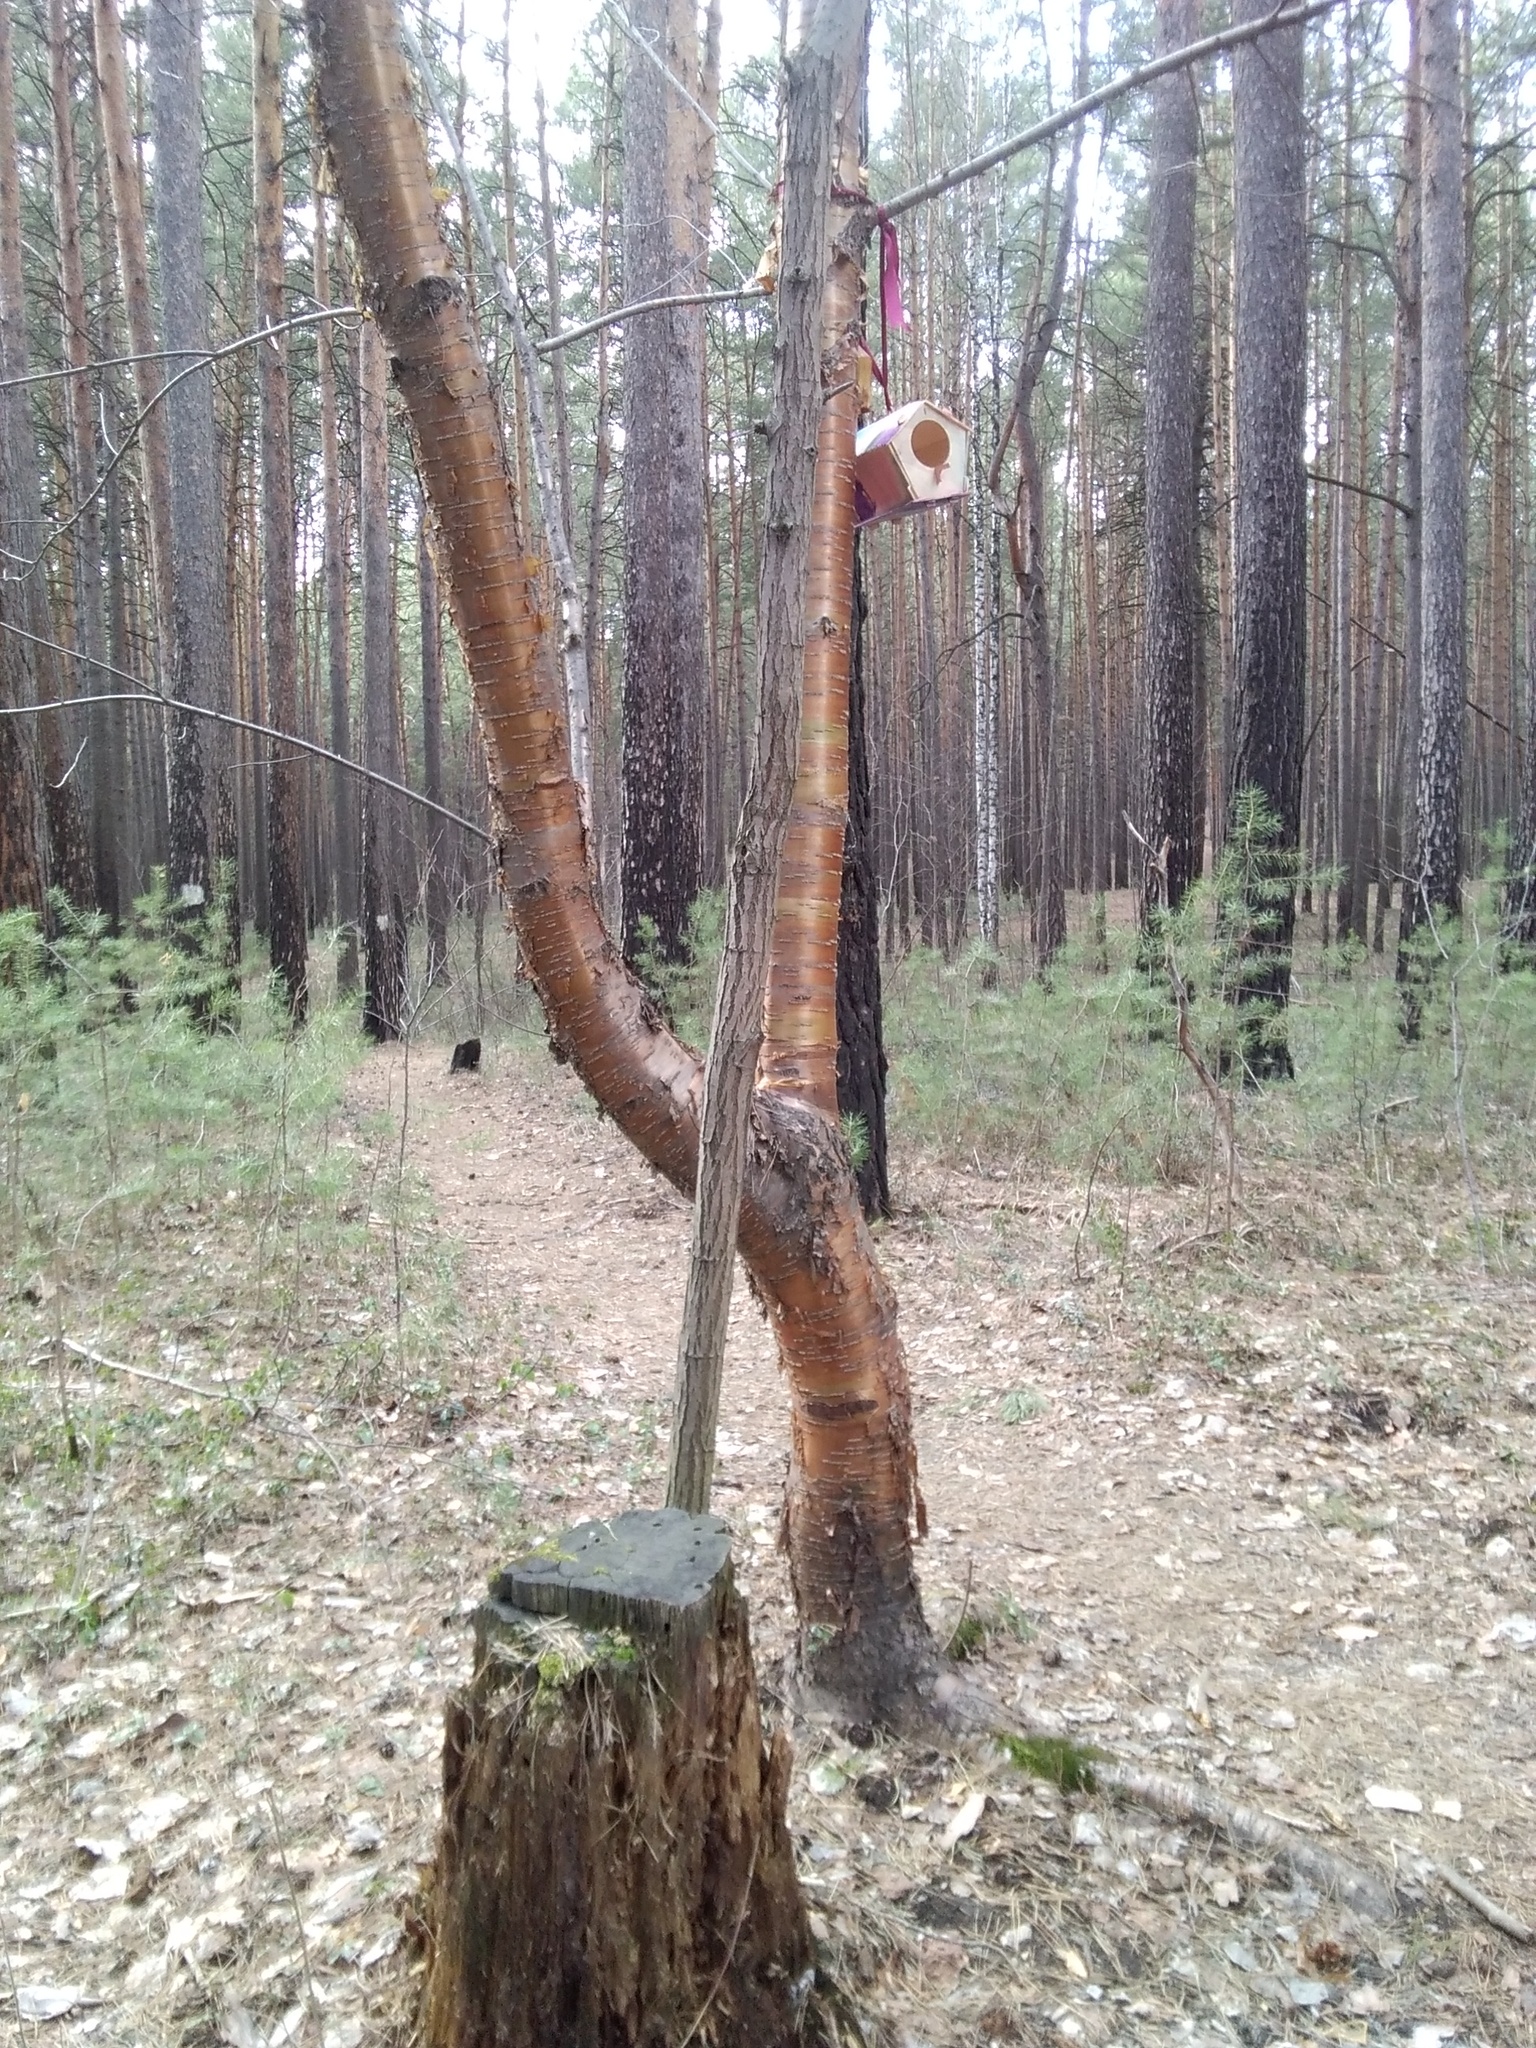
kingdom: Plantae
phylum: Tracheophyta
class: Magnoliopsida
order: Rosales
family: Rosaceae
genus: Prunus
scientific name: Prunus glandulifolia
